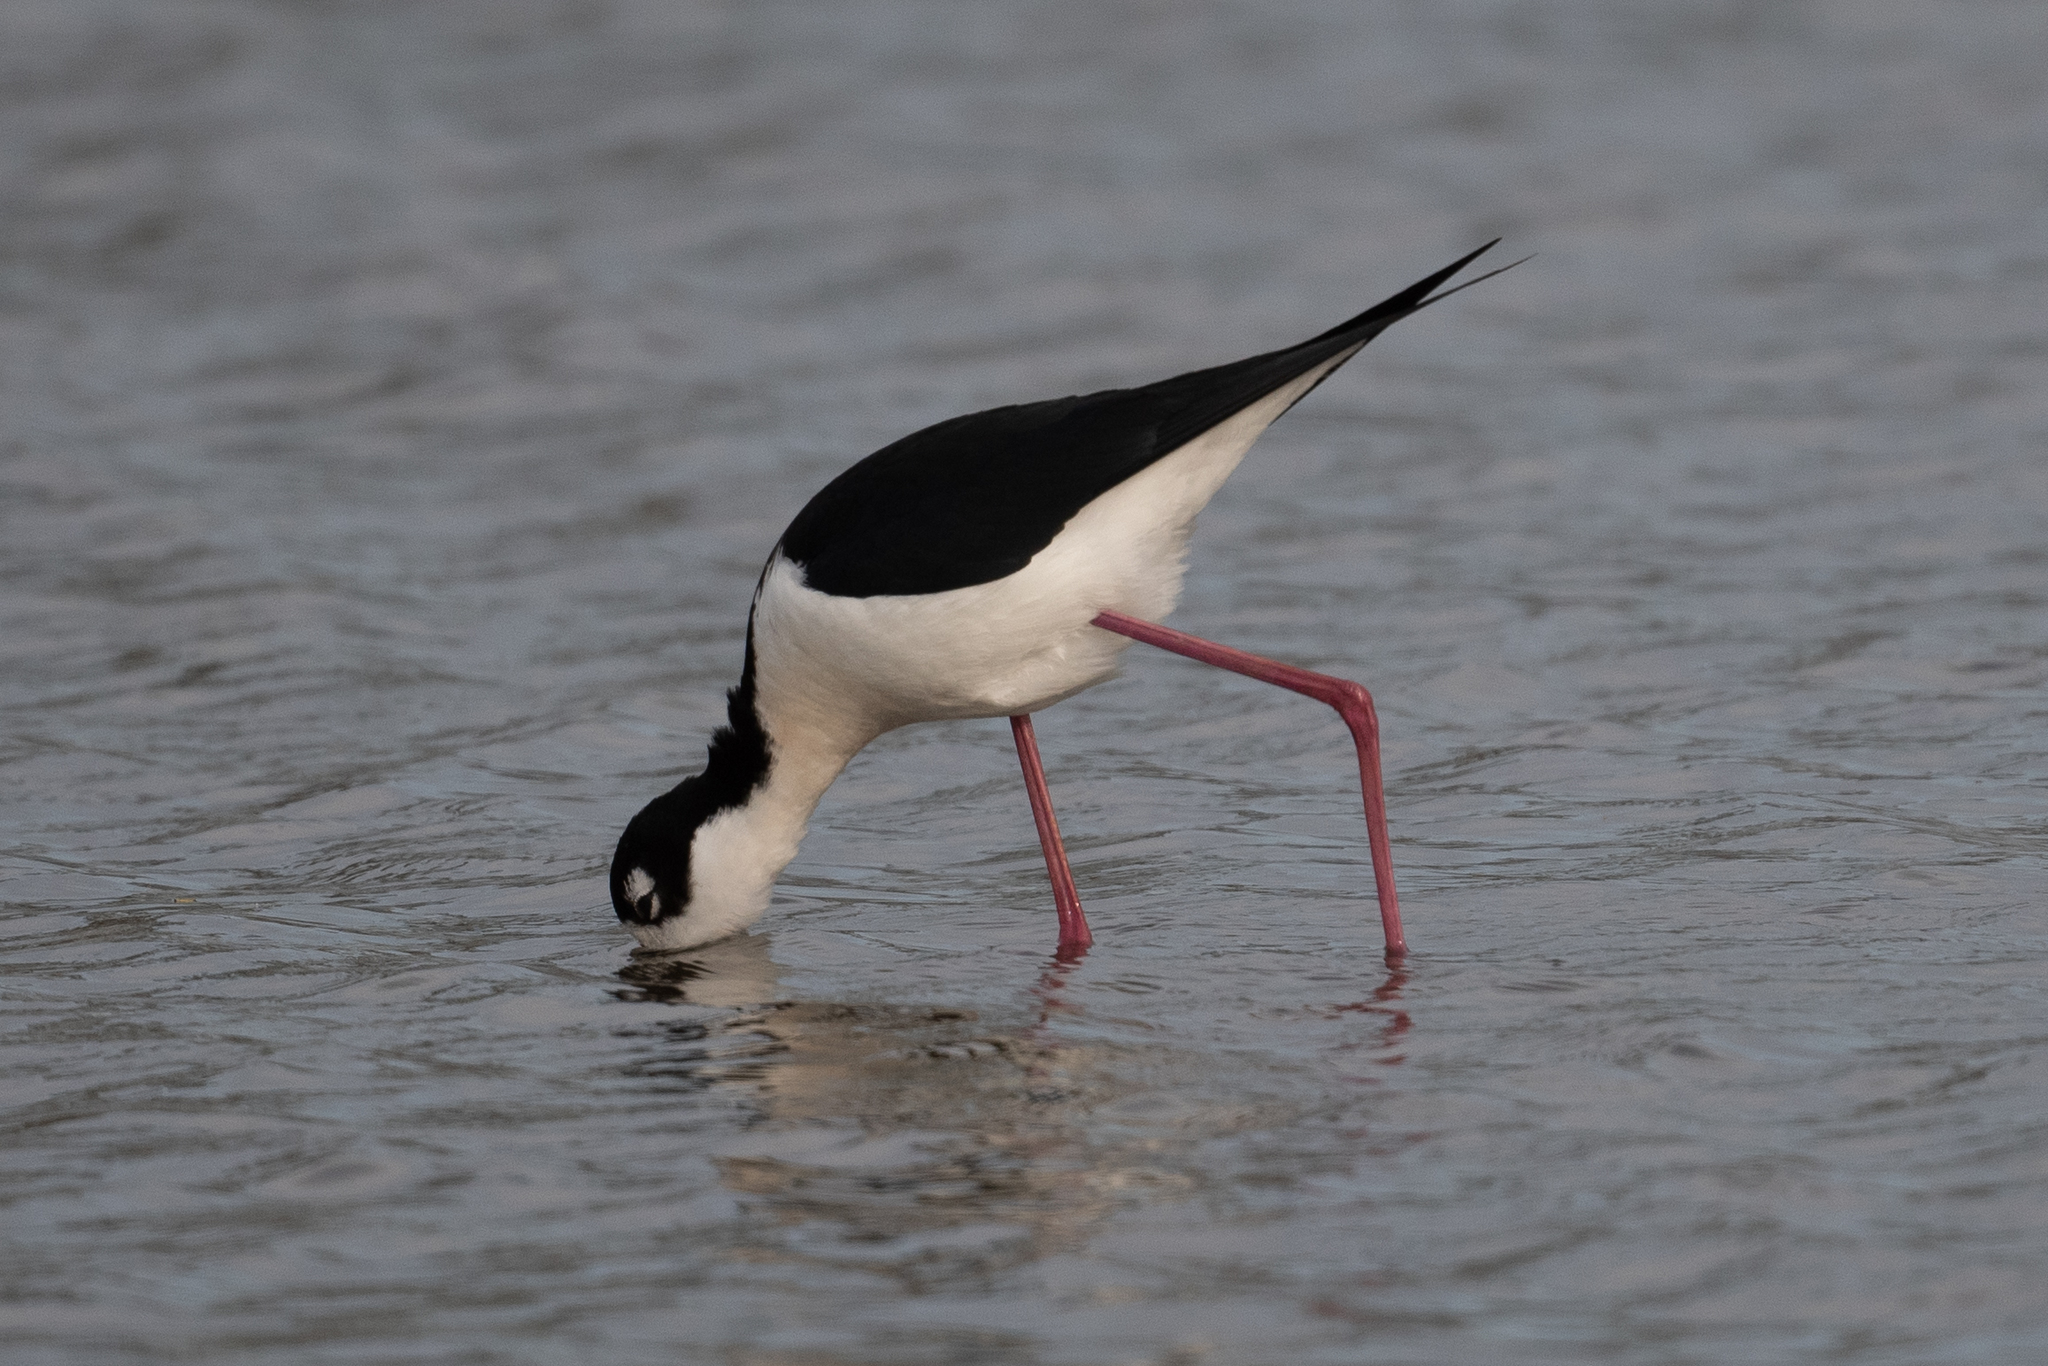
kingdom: Animalia
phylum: Chordata
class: Aves
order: Charadriiformes
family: Recurvirostridae
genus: Himantopus
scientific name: Himantopus mexicanus
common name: Black-necked stilt
